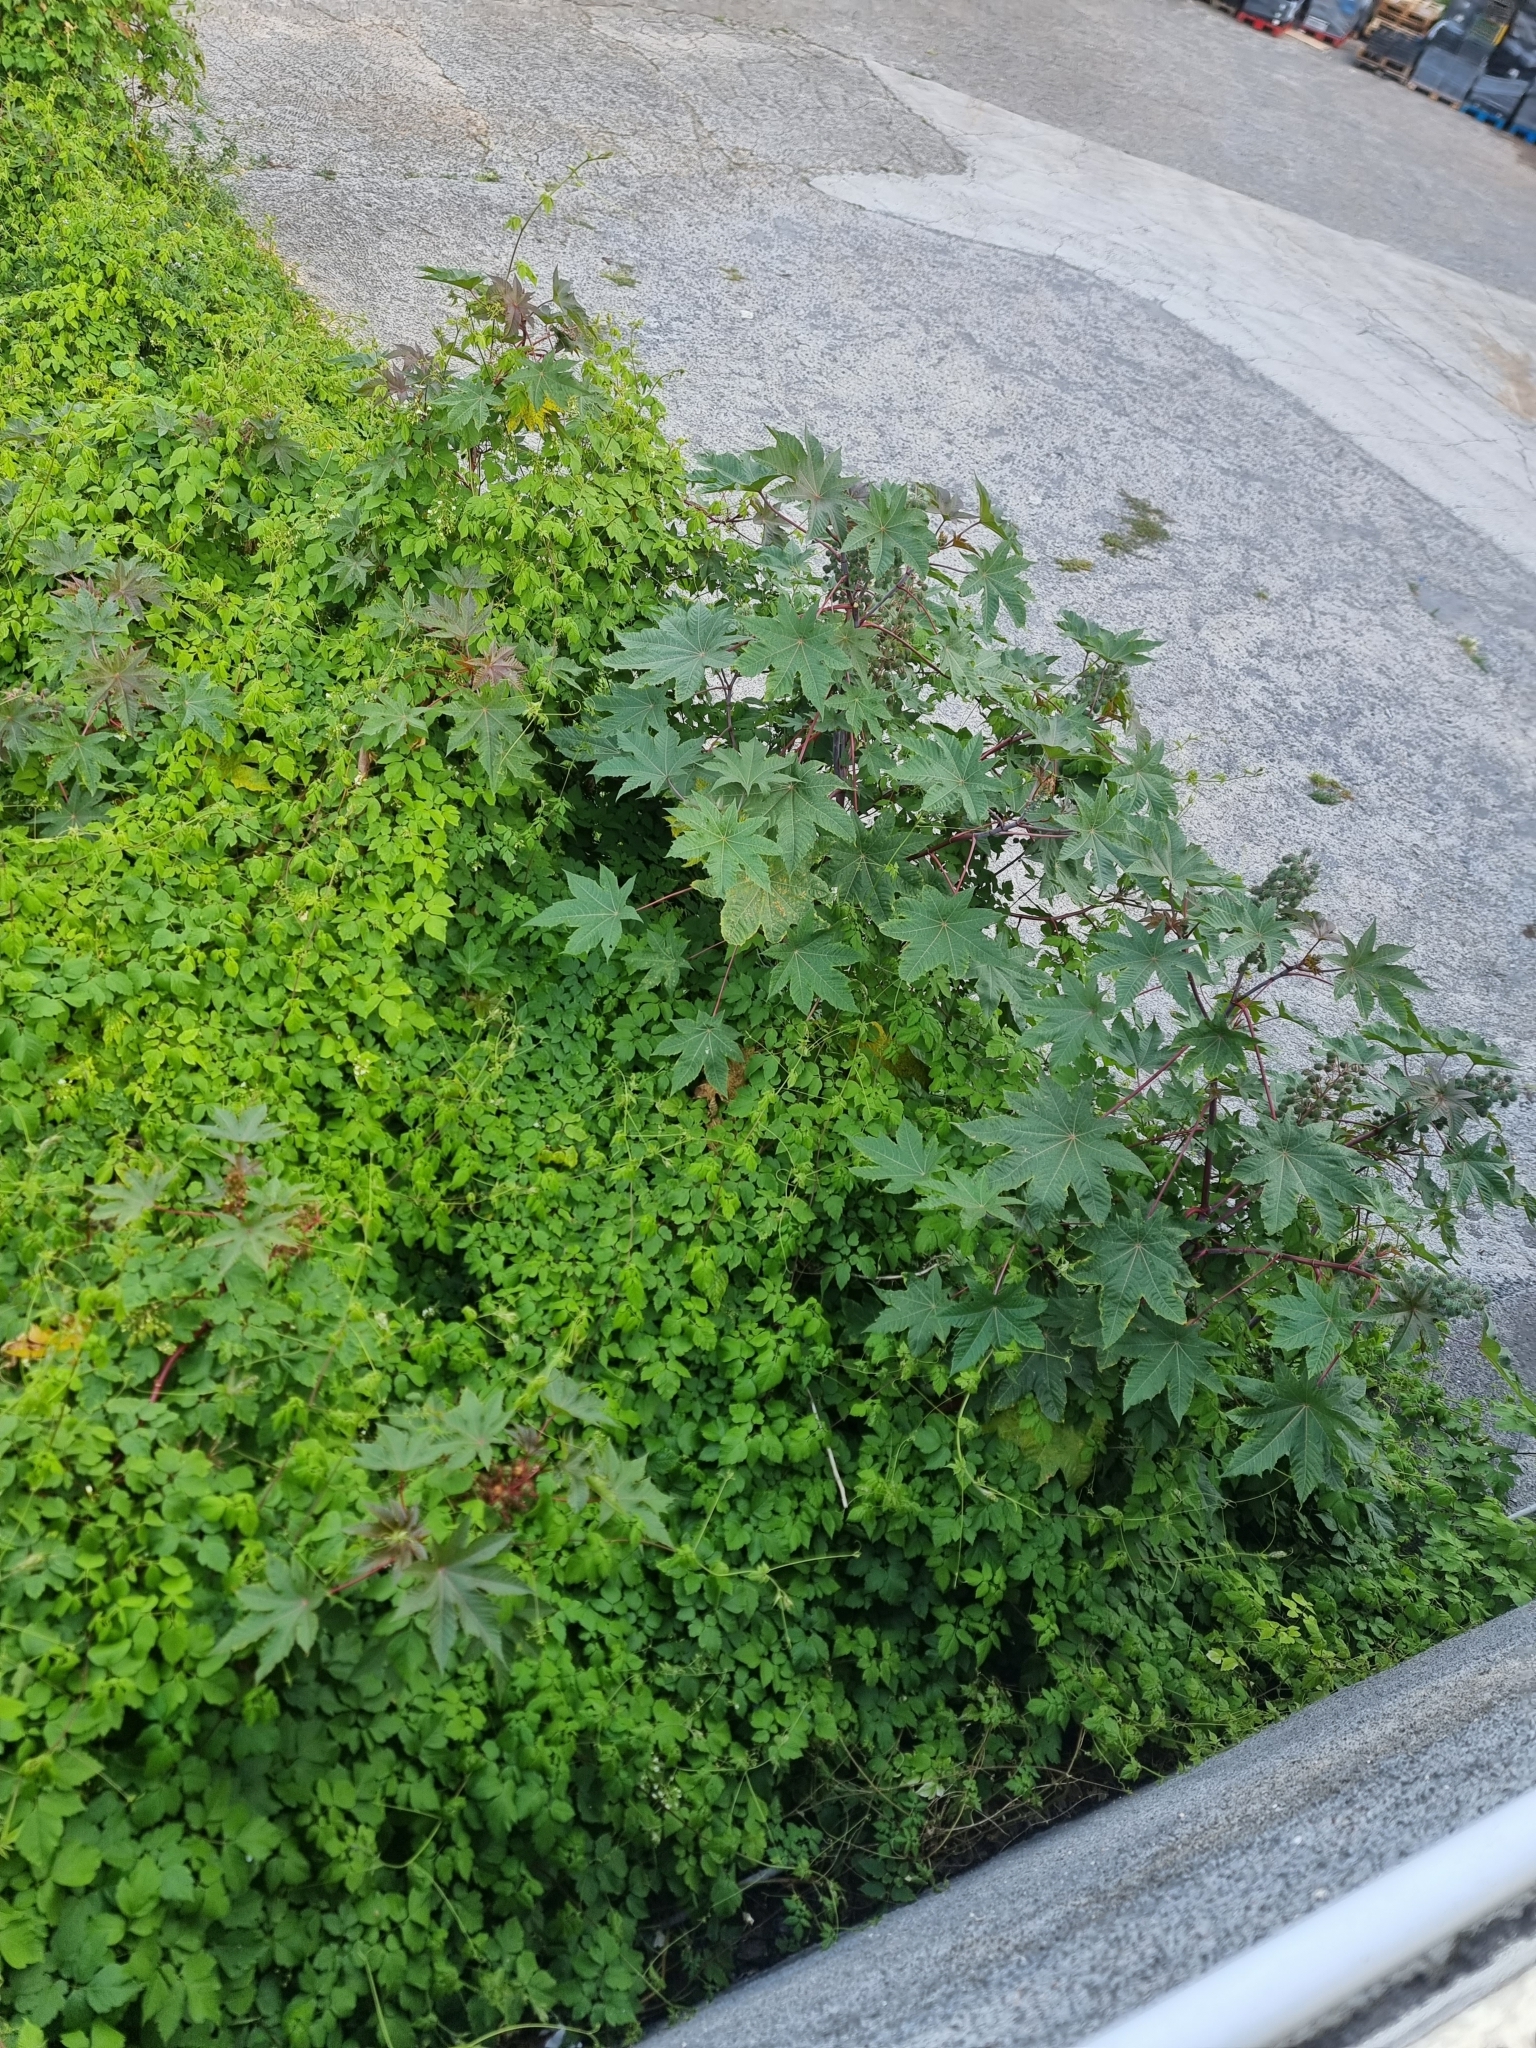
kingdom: Plantae
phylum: Tracheophyta
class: Magnoliopsida
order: Malpighiales
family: Euphorbiaceae
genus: Ricinus
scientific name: Ricinus communis
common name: Castor-oil-plant
